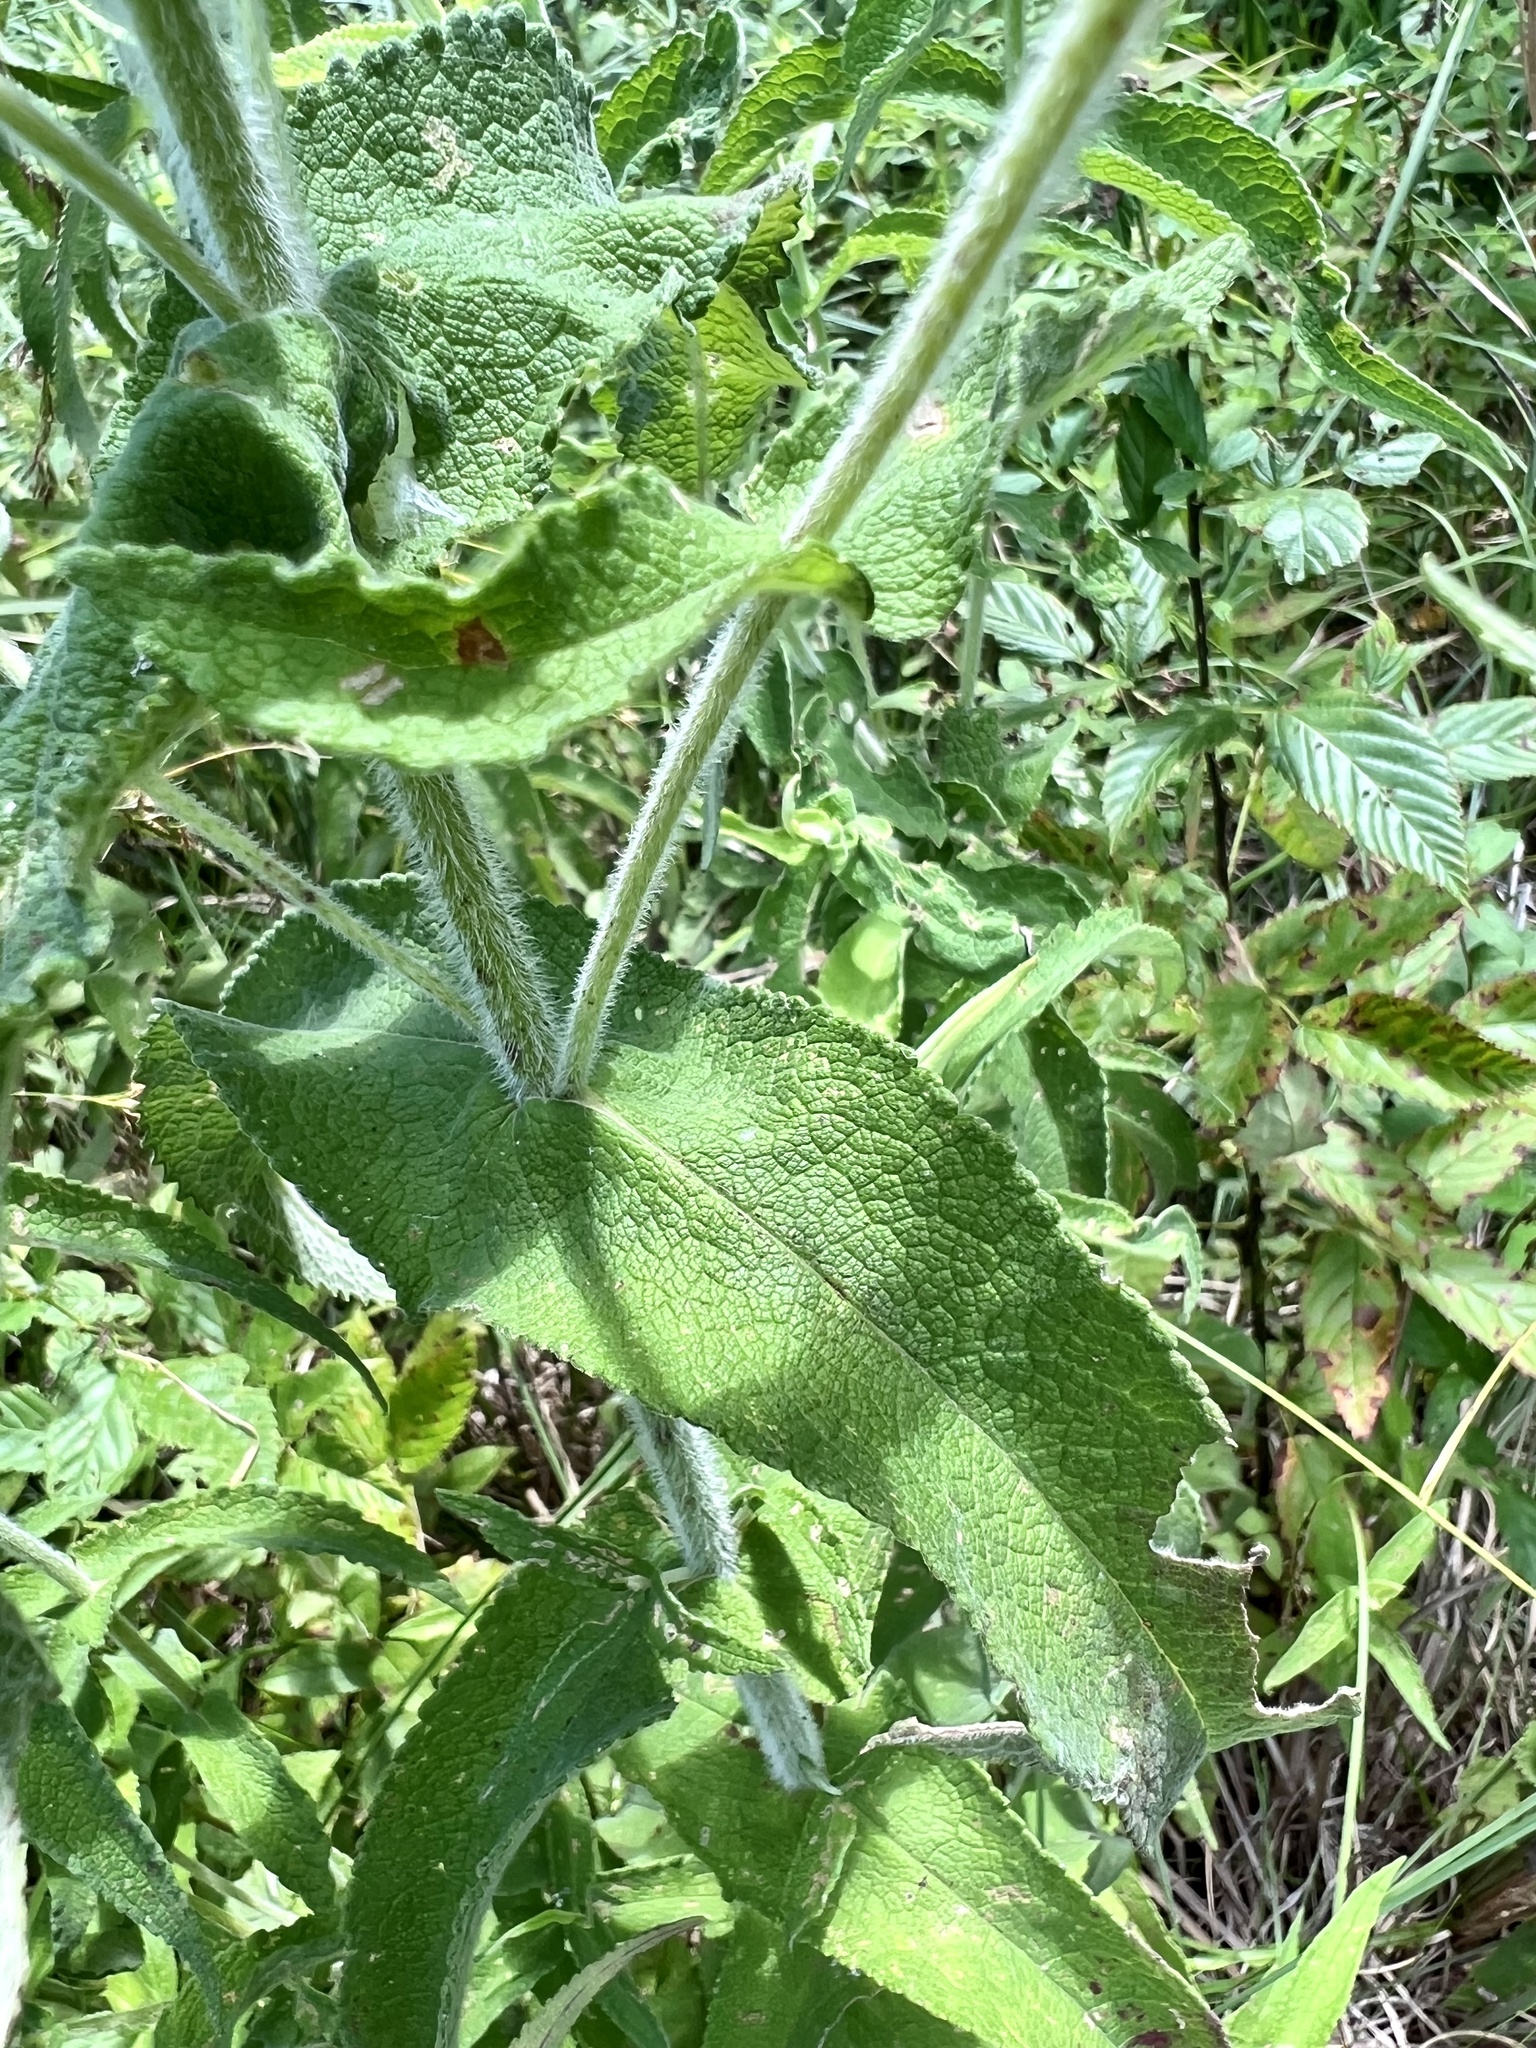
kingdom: Plantae
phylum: Tracheophyta
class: Magnoliopsida
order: Asterales
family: Asteraceae
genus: Eupatorium
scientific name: Eupatorium perfoliatum
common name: Boneset
